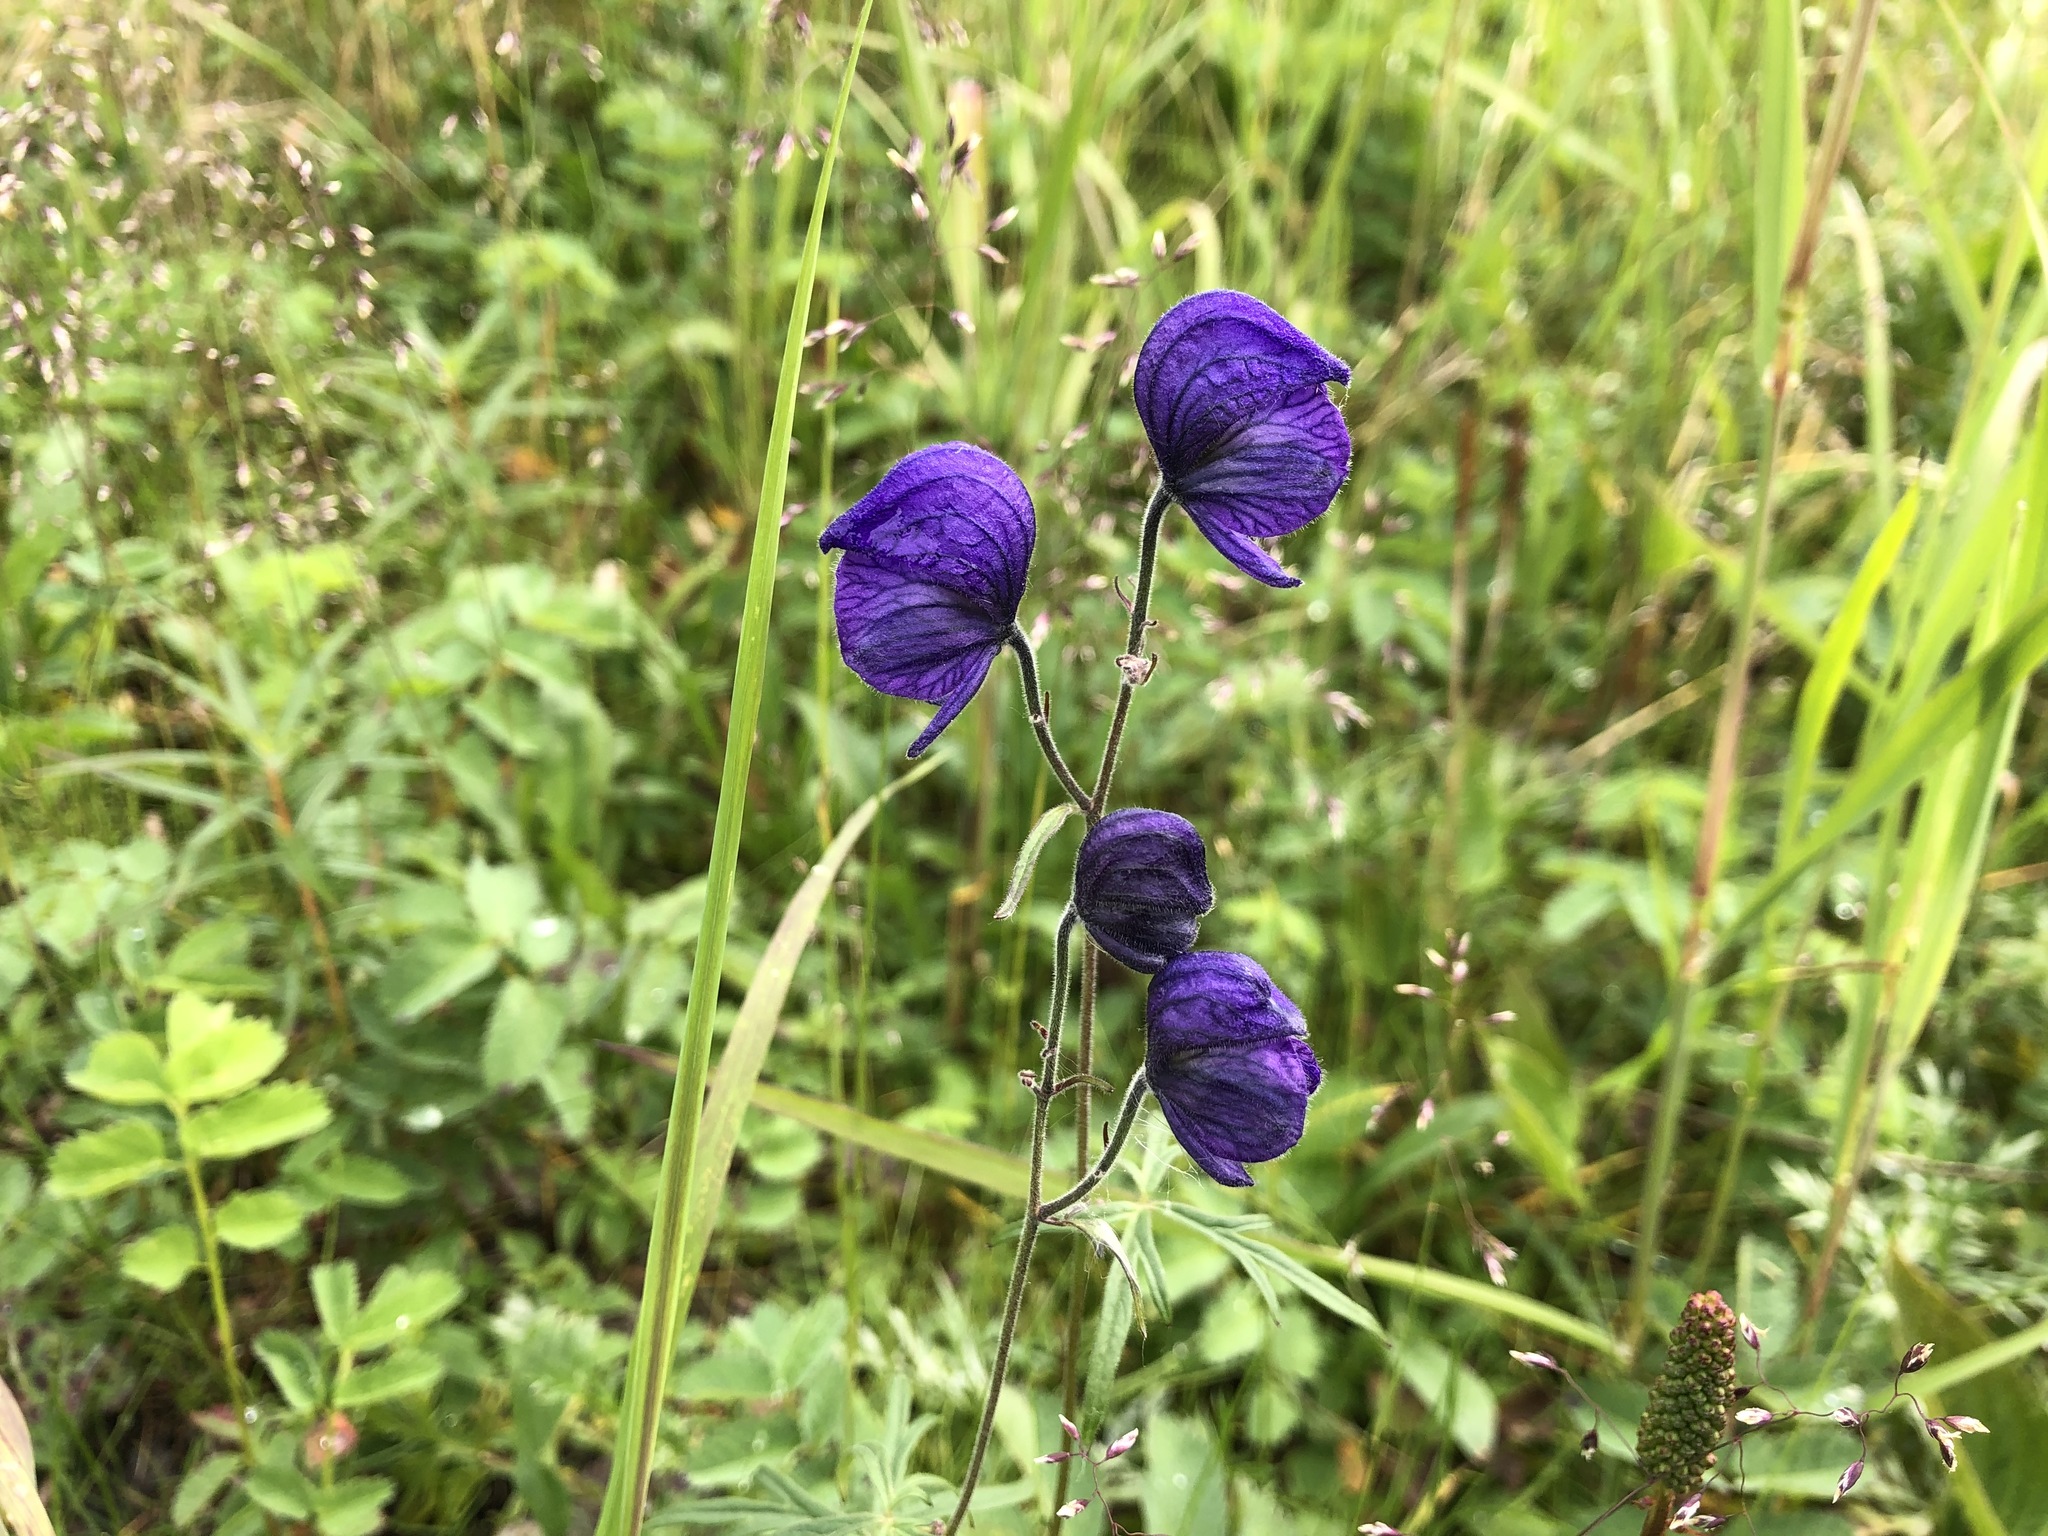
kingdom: Plantae
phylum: Tracheophyta
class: Magnoliopsida
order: Ranunculales
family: Ranunculaceae
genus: Aconitum
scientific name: Aconitum delphiniifolium
